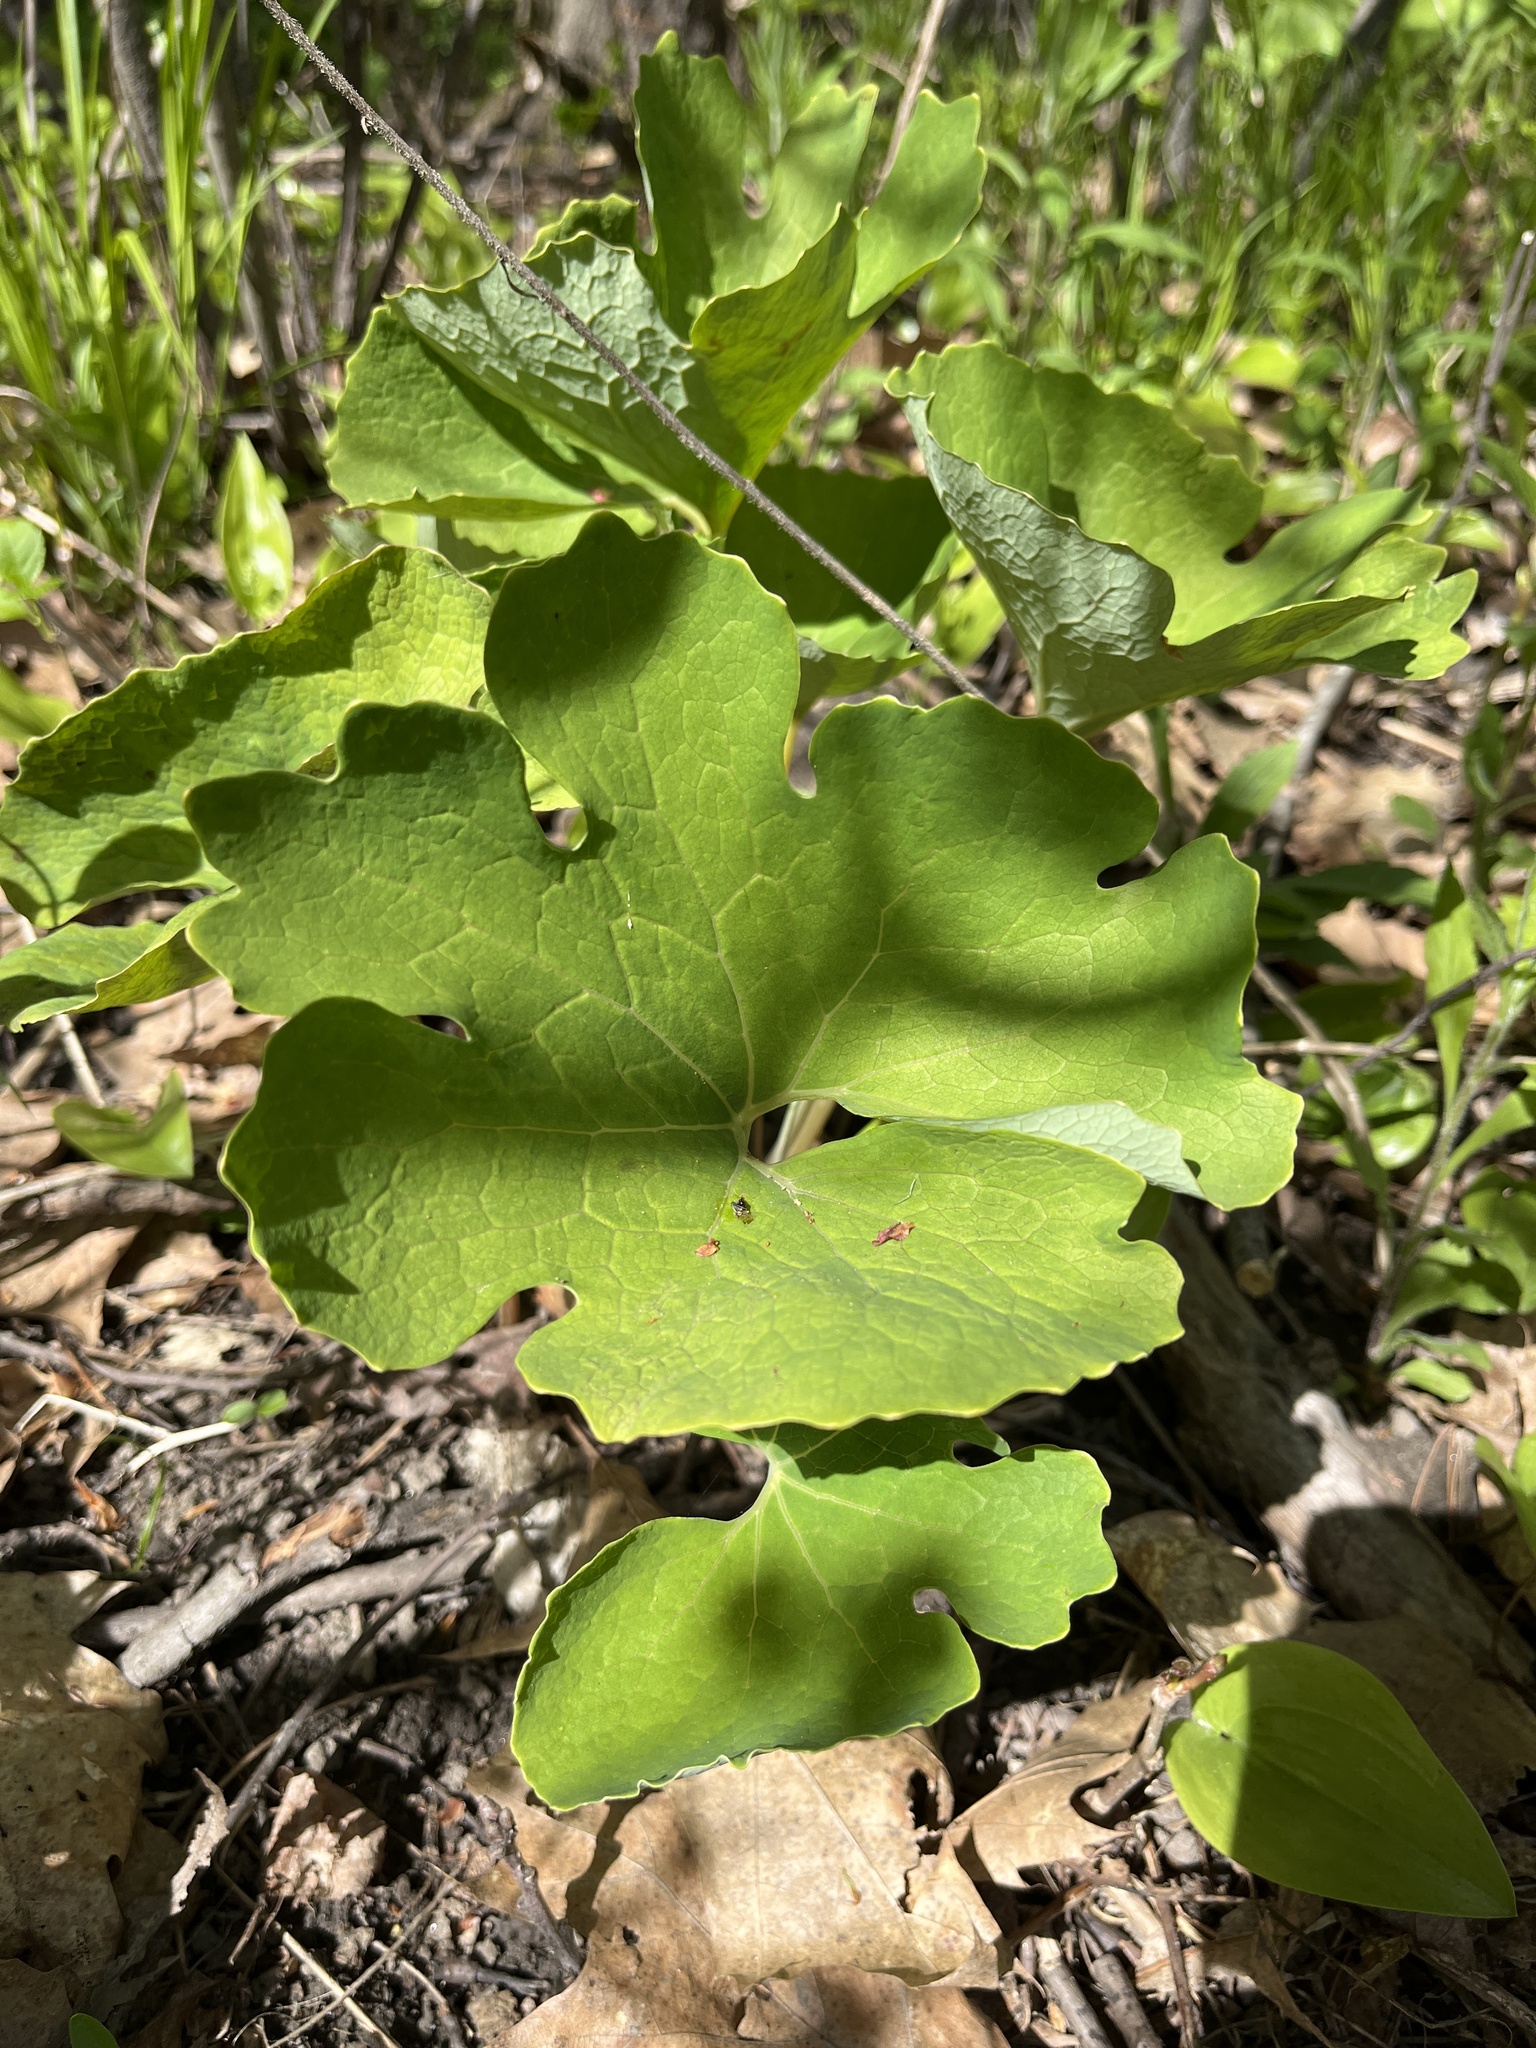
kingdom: Plantae
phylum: Tracheophyta
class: Magnoliopsida
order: Ranunculales
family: Papaveraceae
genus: Sanguinaria
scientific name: Sanguinaria canadensis
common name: Bloodroot
